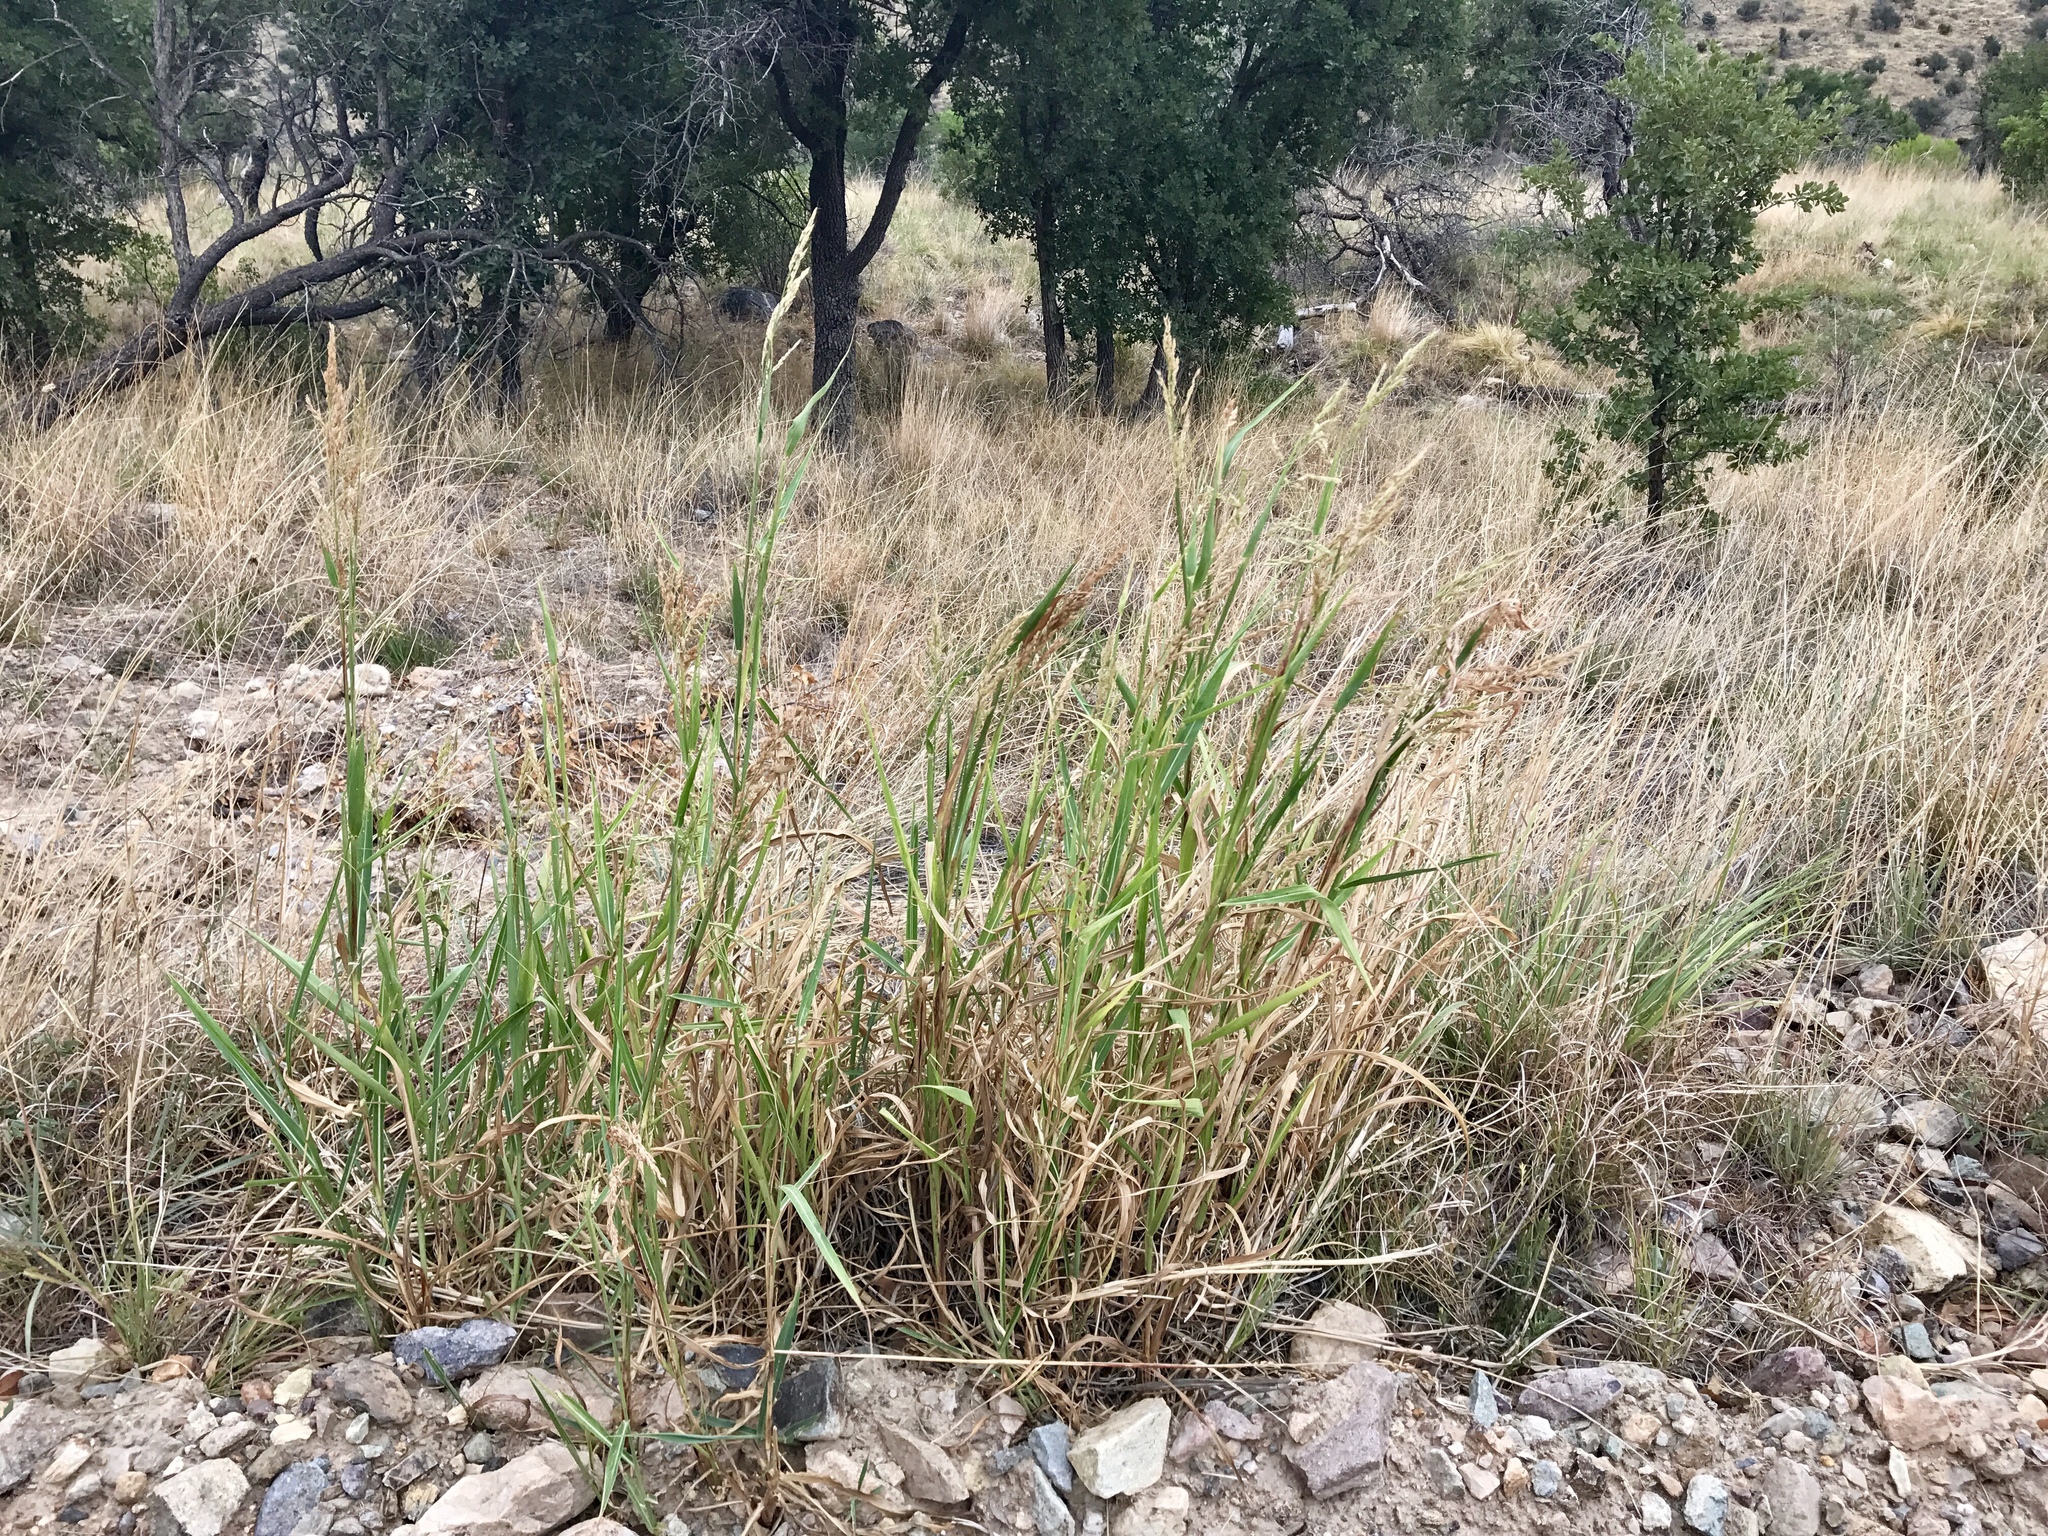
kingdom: Plantae
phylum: Tracheophyta
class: Liliopsida
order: Poales
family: Poaceae
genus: Sorghum
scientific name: Sorghum halepense
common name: Johnson-grass
